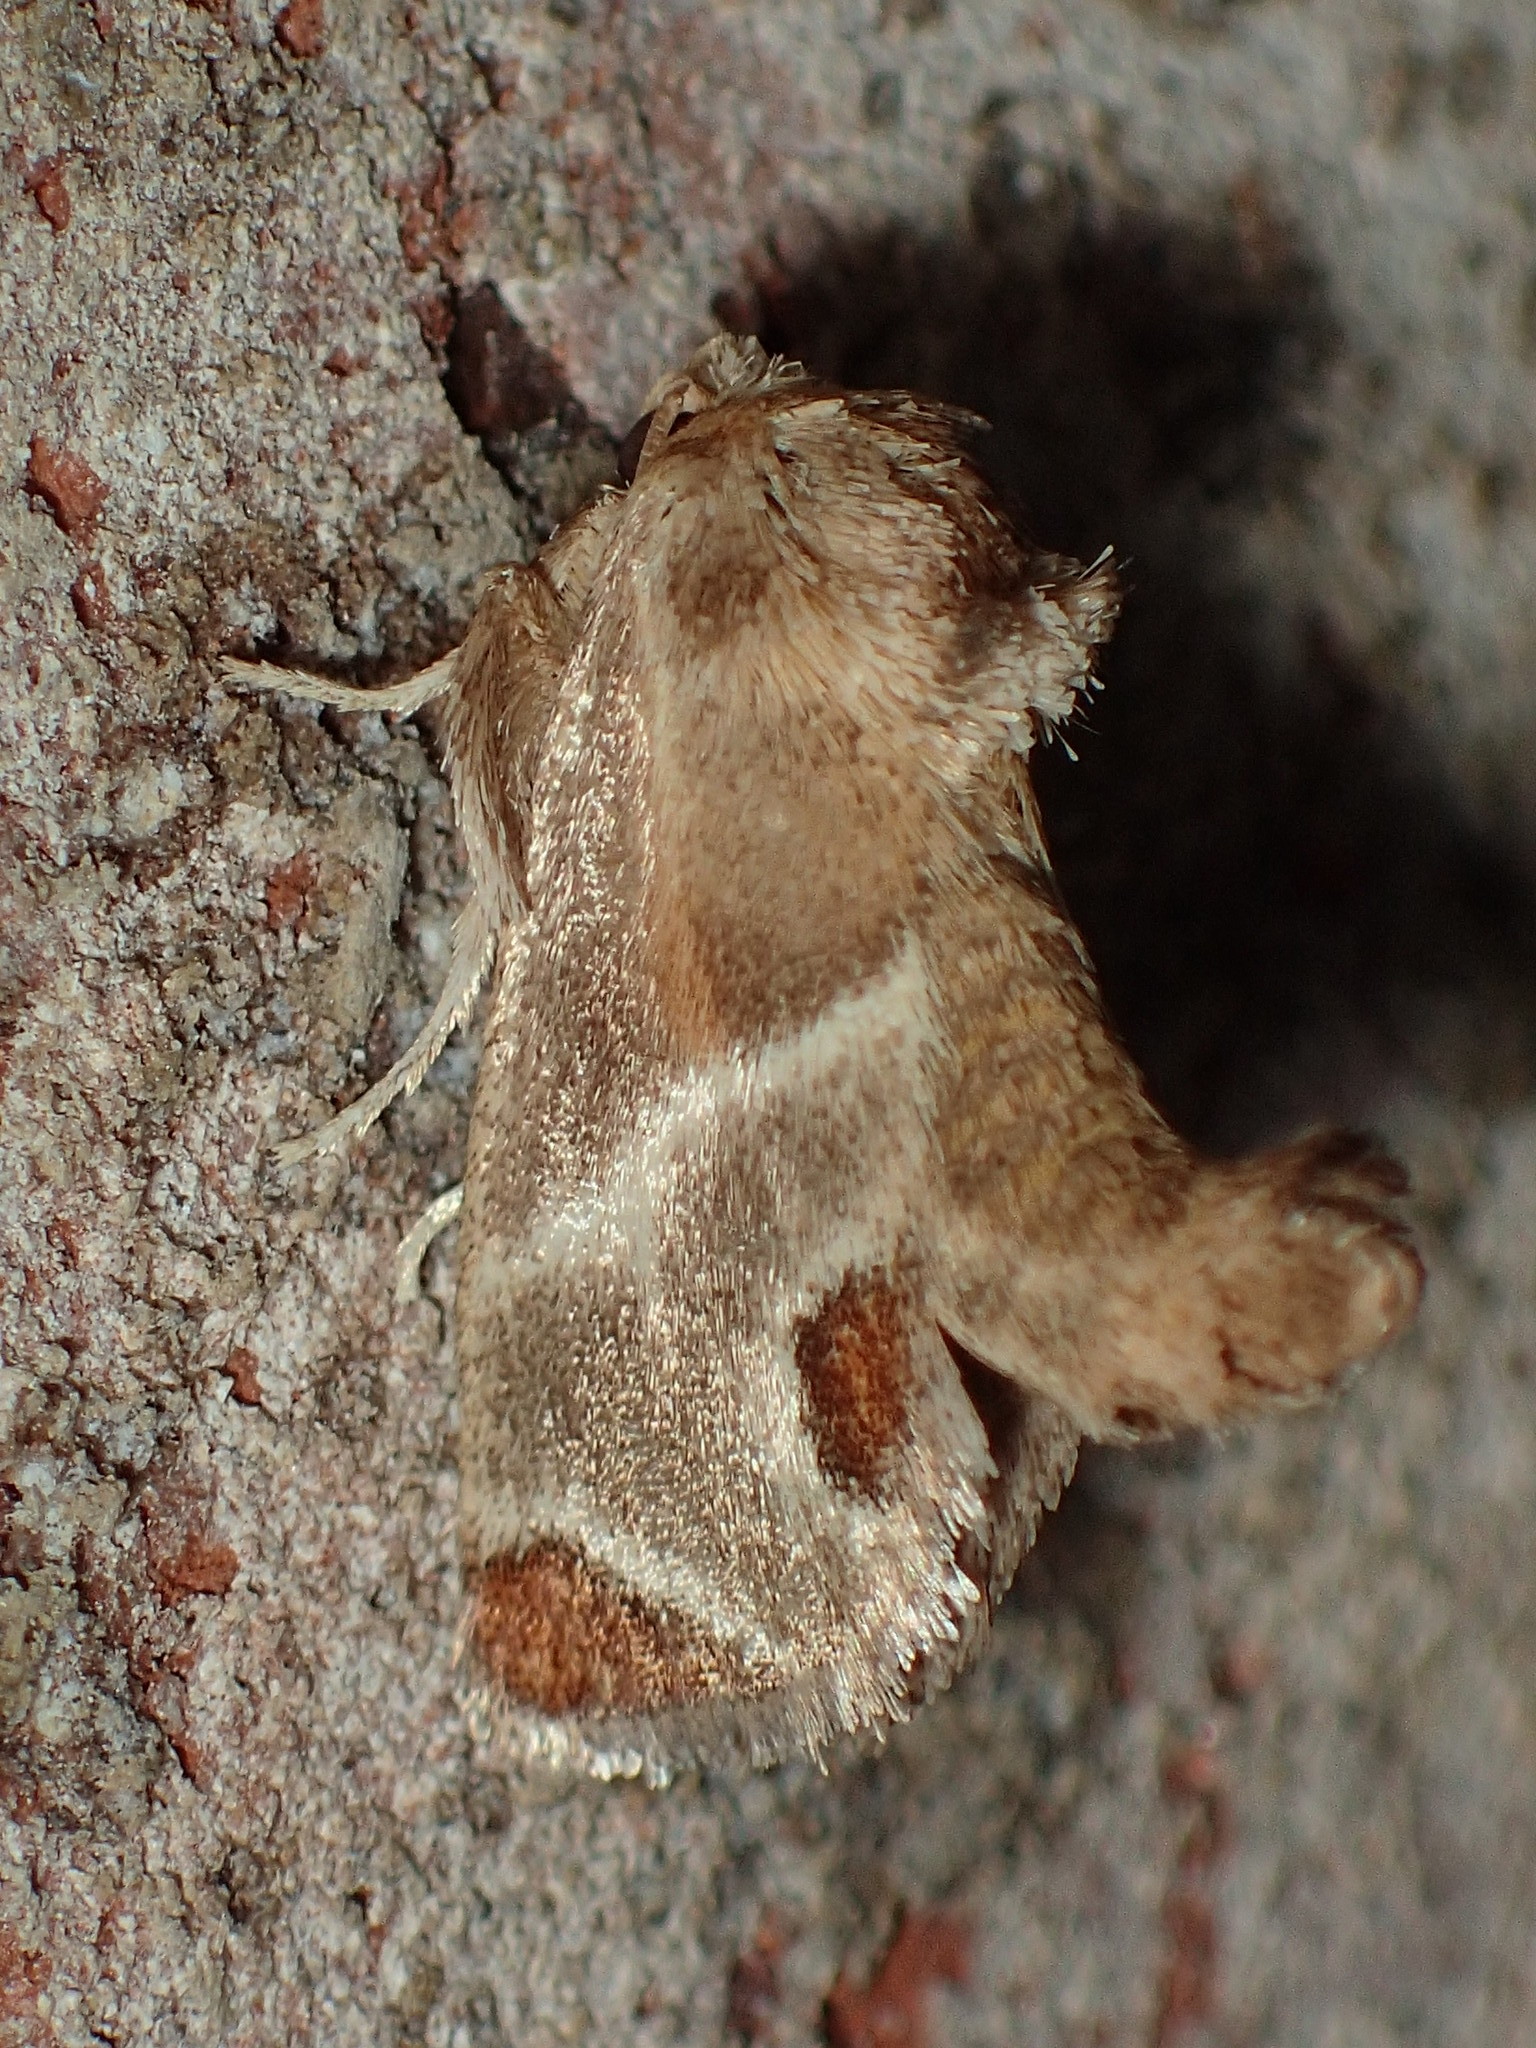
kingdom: Animalia
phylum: Arthropoda
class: Insecta
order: Lepidoptera
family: Limacodidae
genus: Apoda
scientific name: Apoda biguttata
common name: Shagreened slug moth
